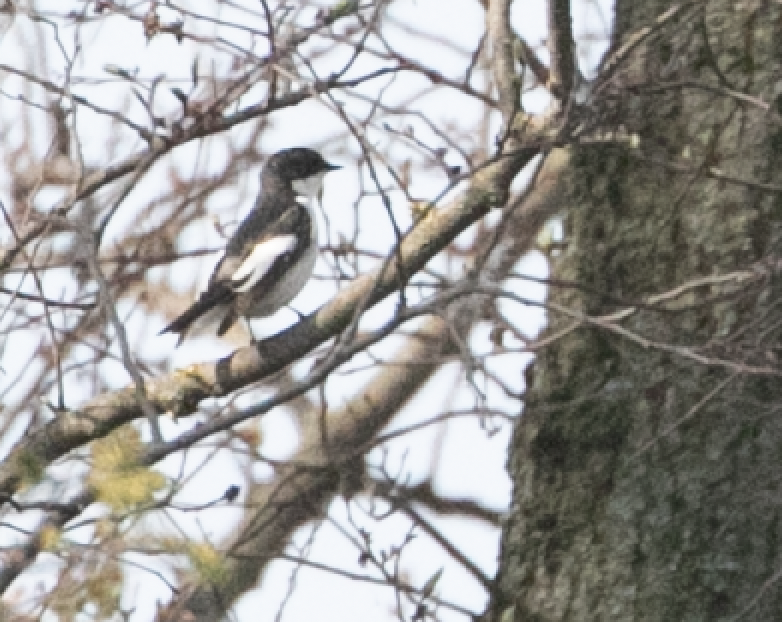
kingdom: Animalia
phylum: Chordata
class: Aves
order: Passeriformes
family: Muscicapidae
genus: Ficedula
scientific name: Ficedula hypoleuca
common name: European pied flycatcher
